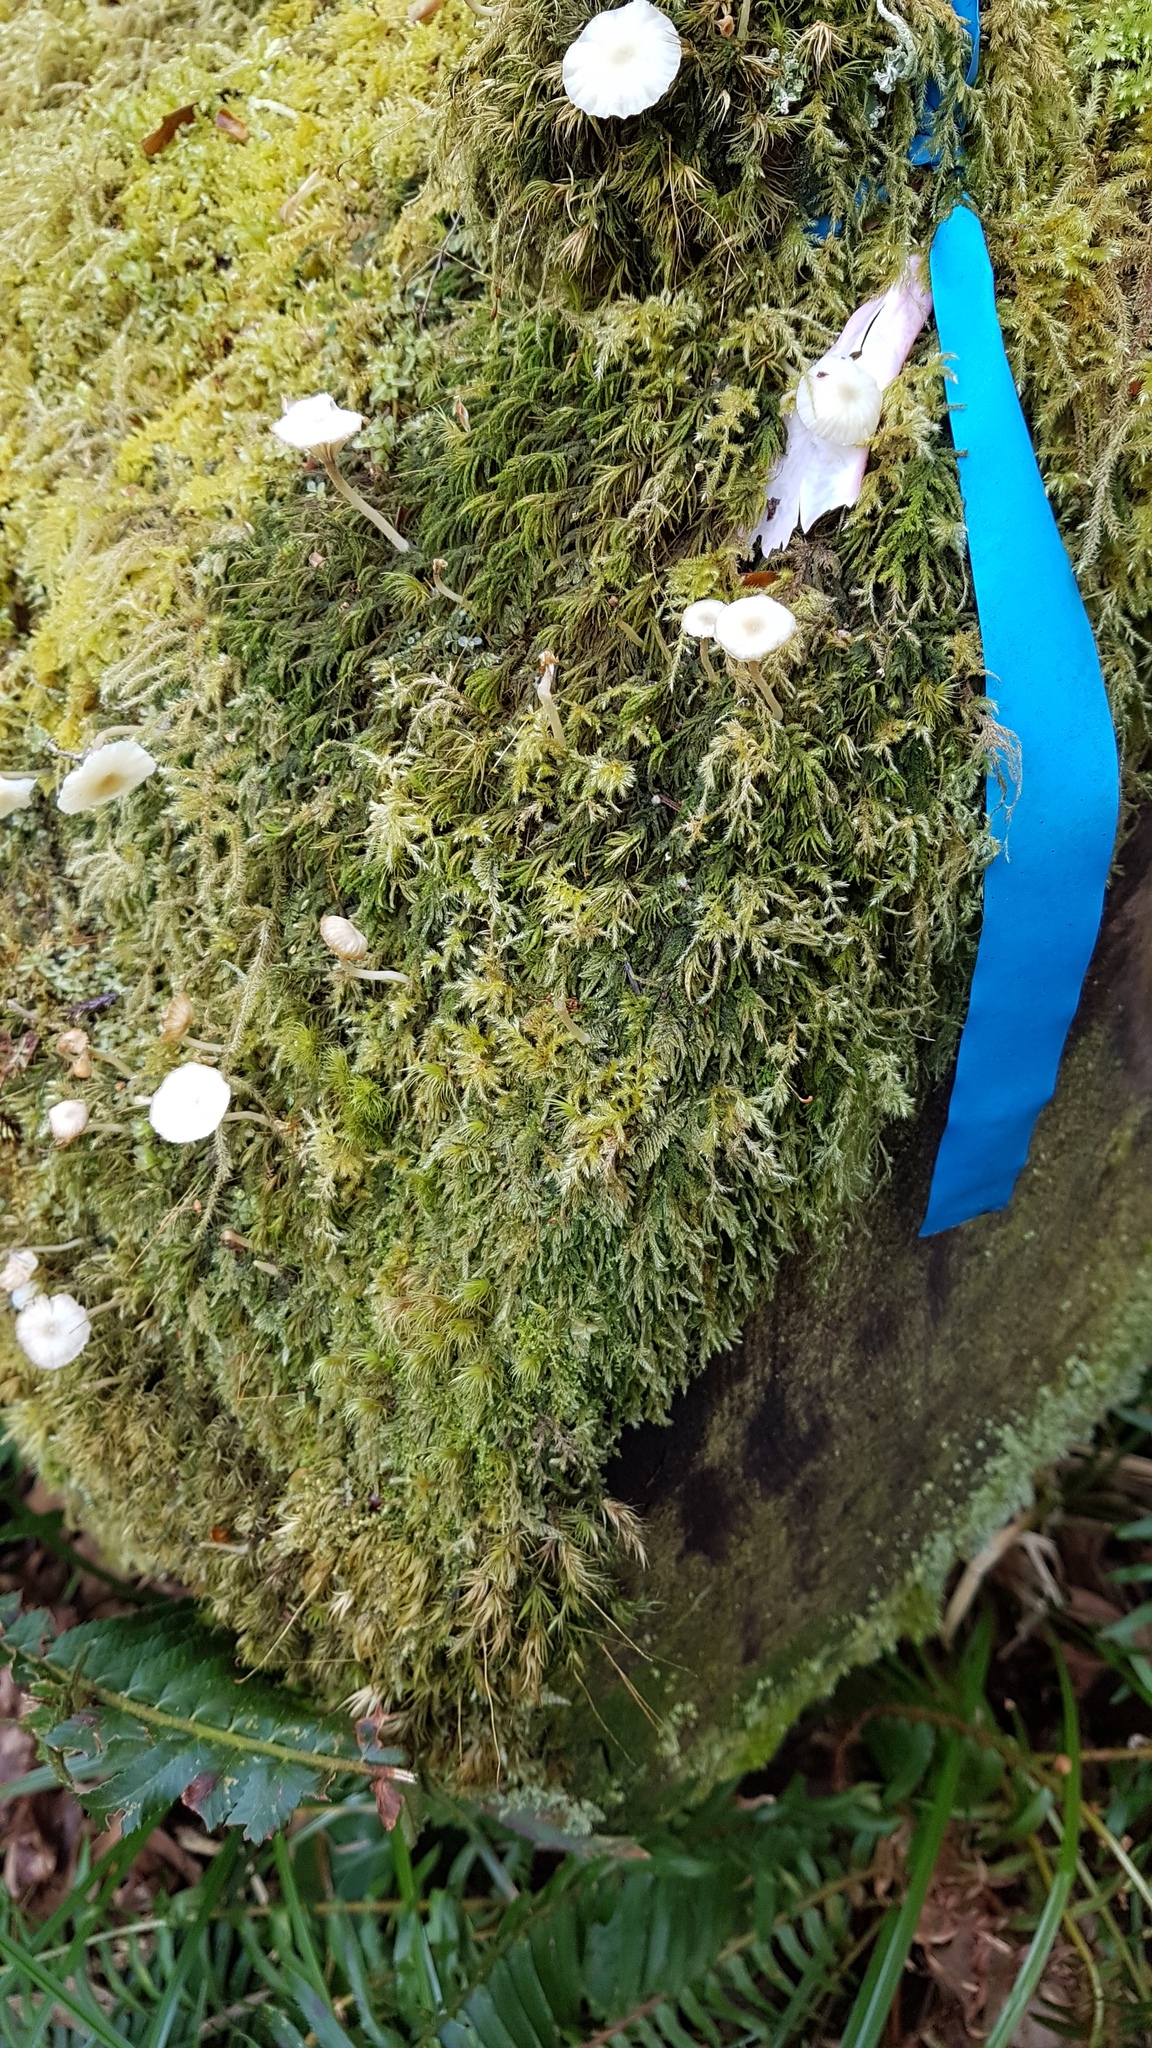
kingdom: Plantae
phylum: Bryophyta
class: Bryopsida
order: Hypnales
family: Pylaisiadelphaceae
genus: Trochophyllohypnum
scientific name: Trochophyllohypnum circinale
